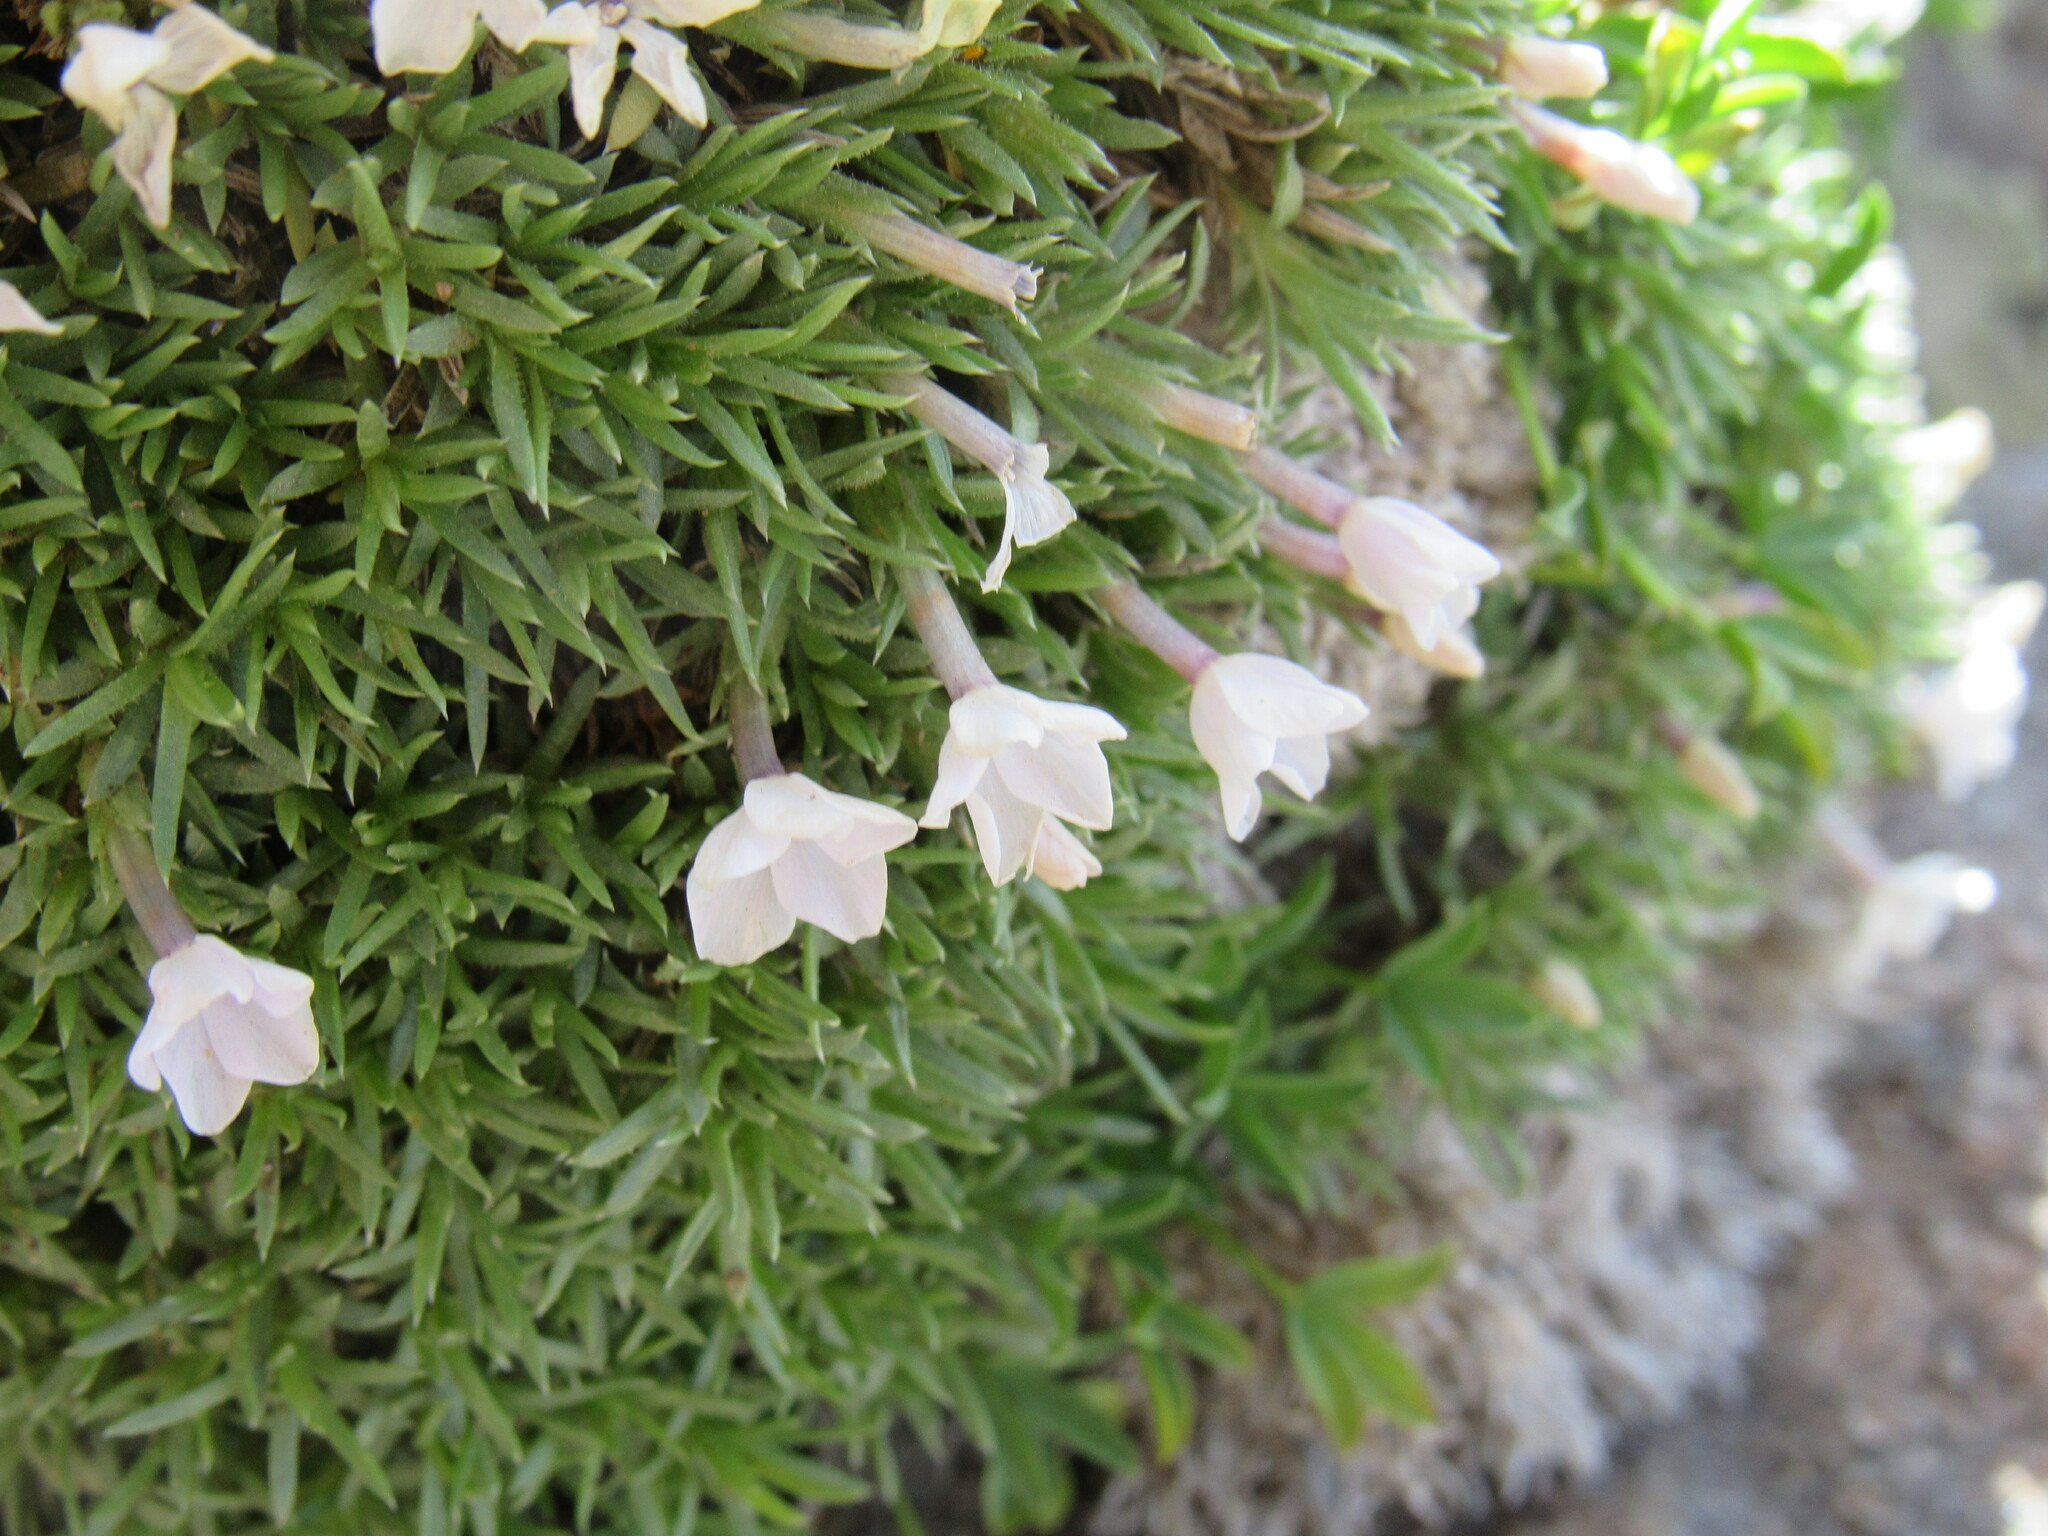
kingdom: Plantae
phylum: Tracheophyta
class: Magnoliopsida
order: Ericales
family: Polemoniaceae
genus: Phlox
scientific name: Phlox condensata
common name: Compact phlox
